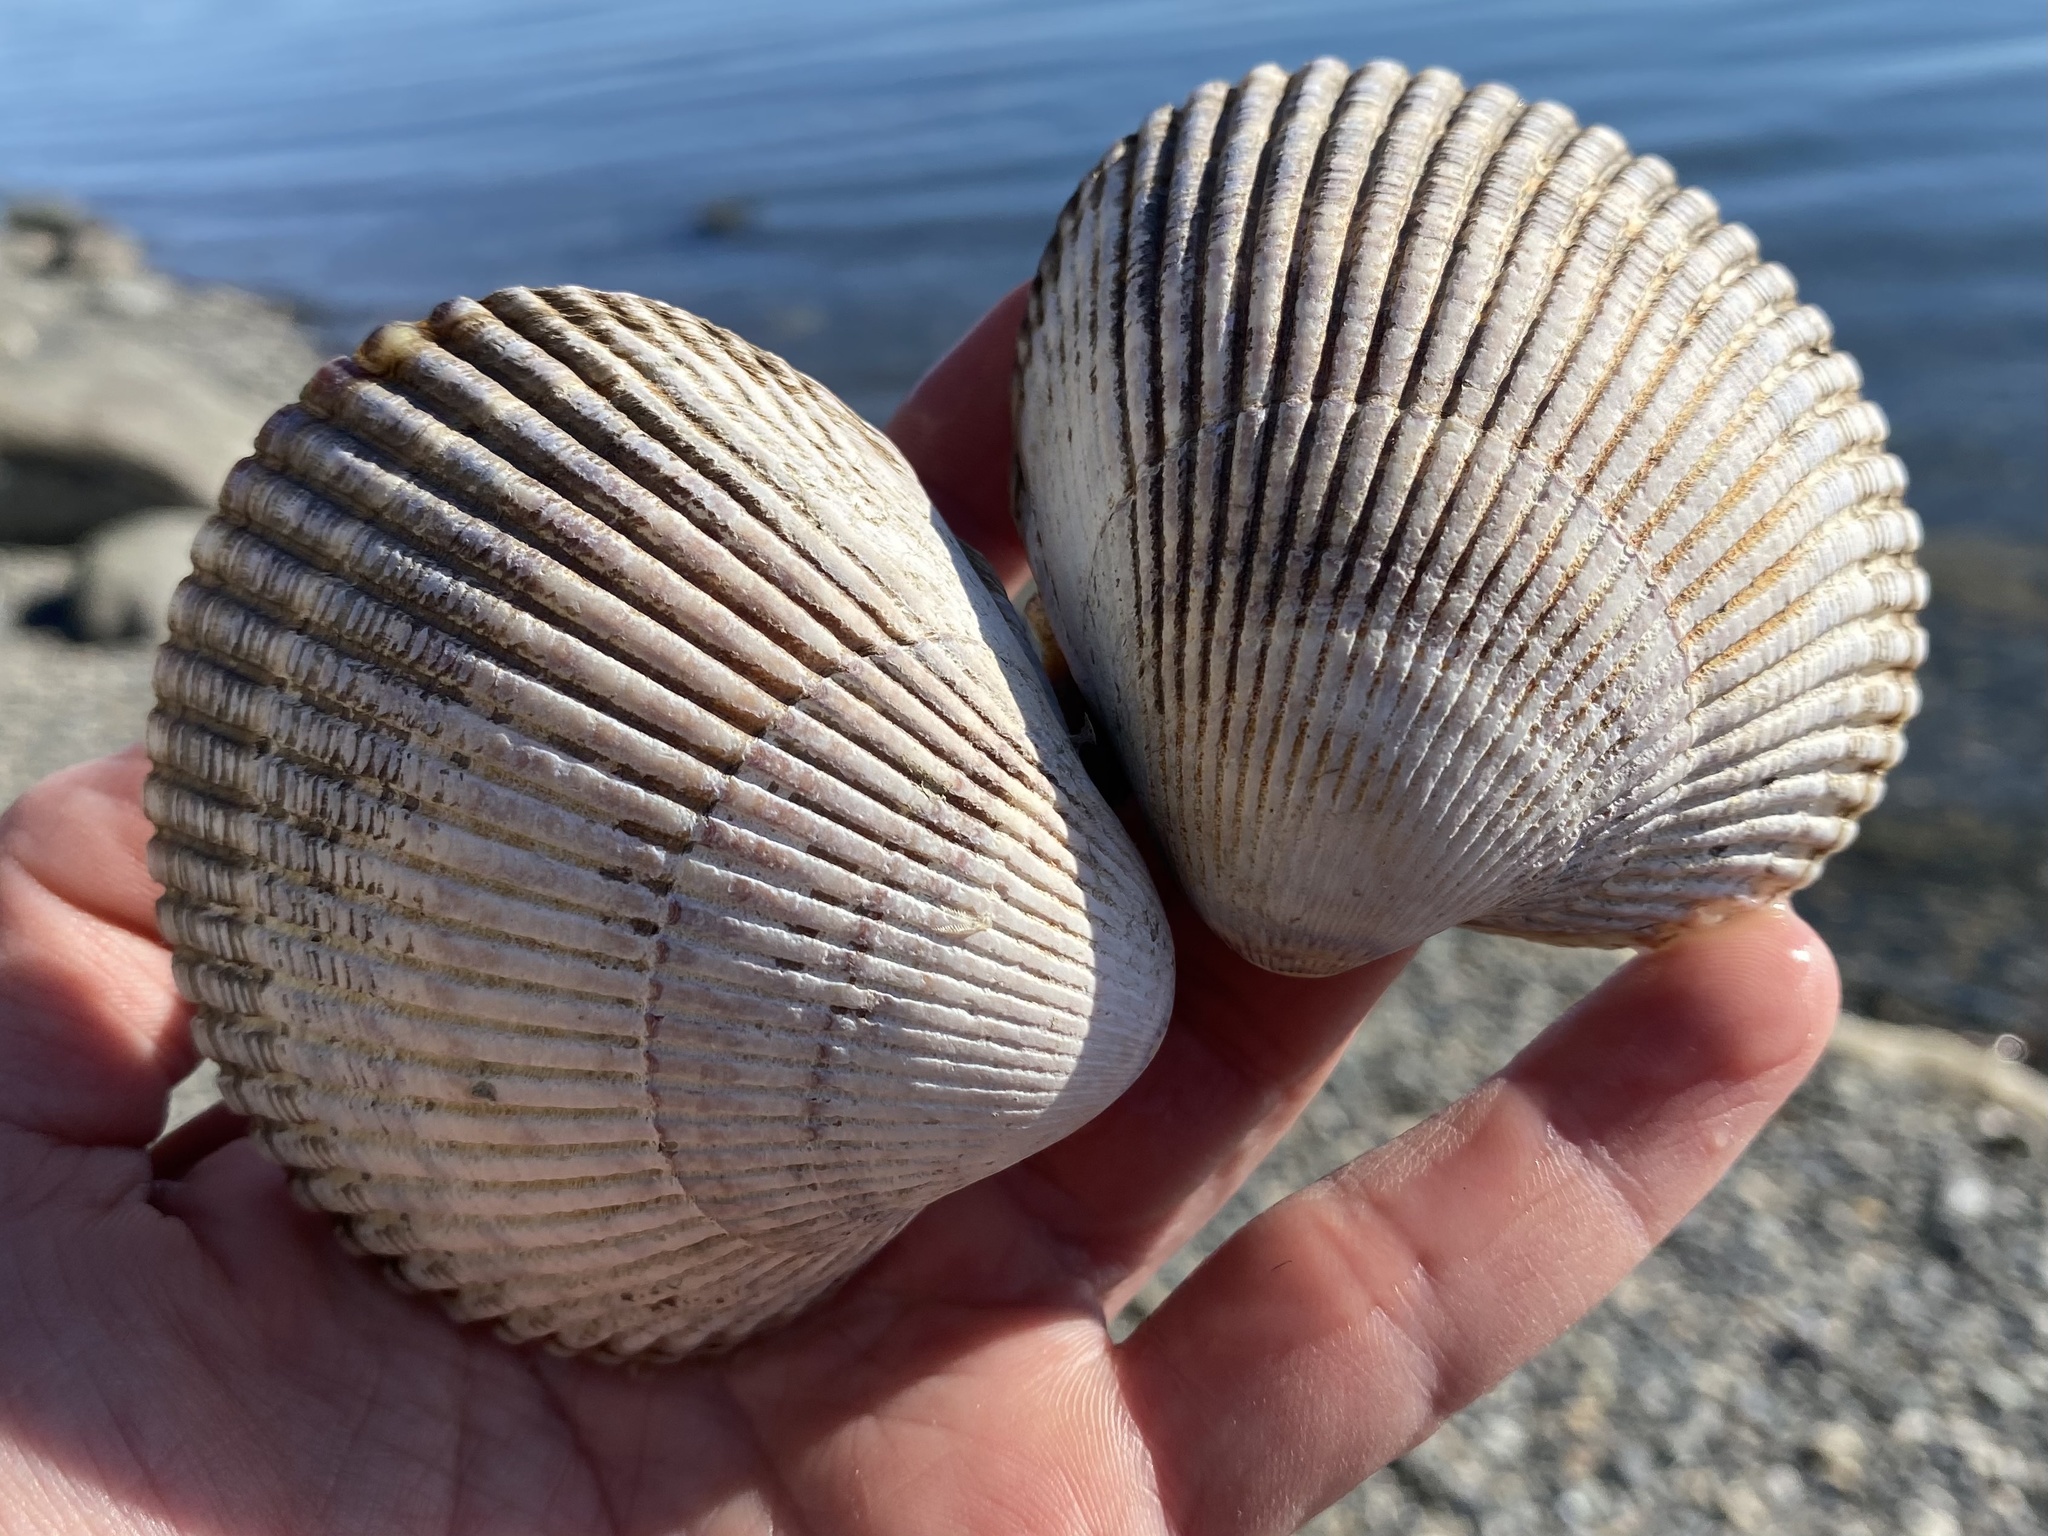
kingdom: Animalia
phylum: Mollusca
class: Bivalvia
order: Cardiida
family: Cardiidae
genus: Clinocardium
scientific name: Clinocardium nuttallii
